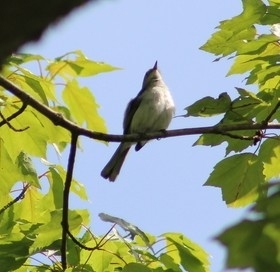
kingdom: Animalia
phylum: Chordata
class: Aves
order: Passeriformes
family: Polioptilidae
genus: Polioptila
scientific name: Polioptila caerulea
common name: Blue-gray gnatcatcher
